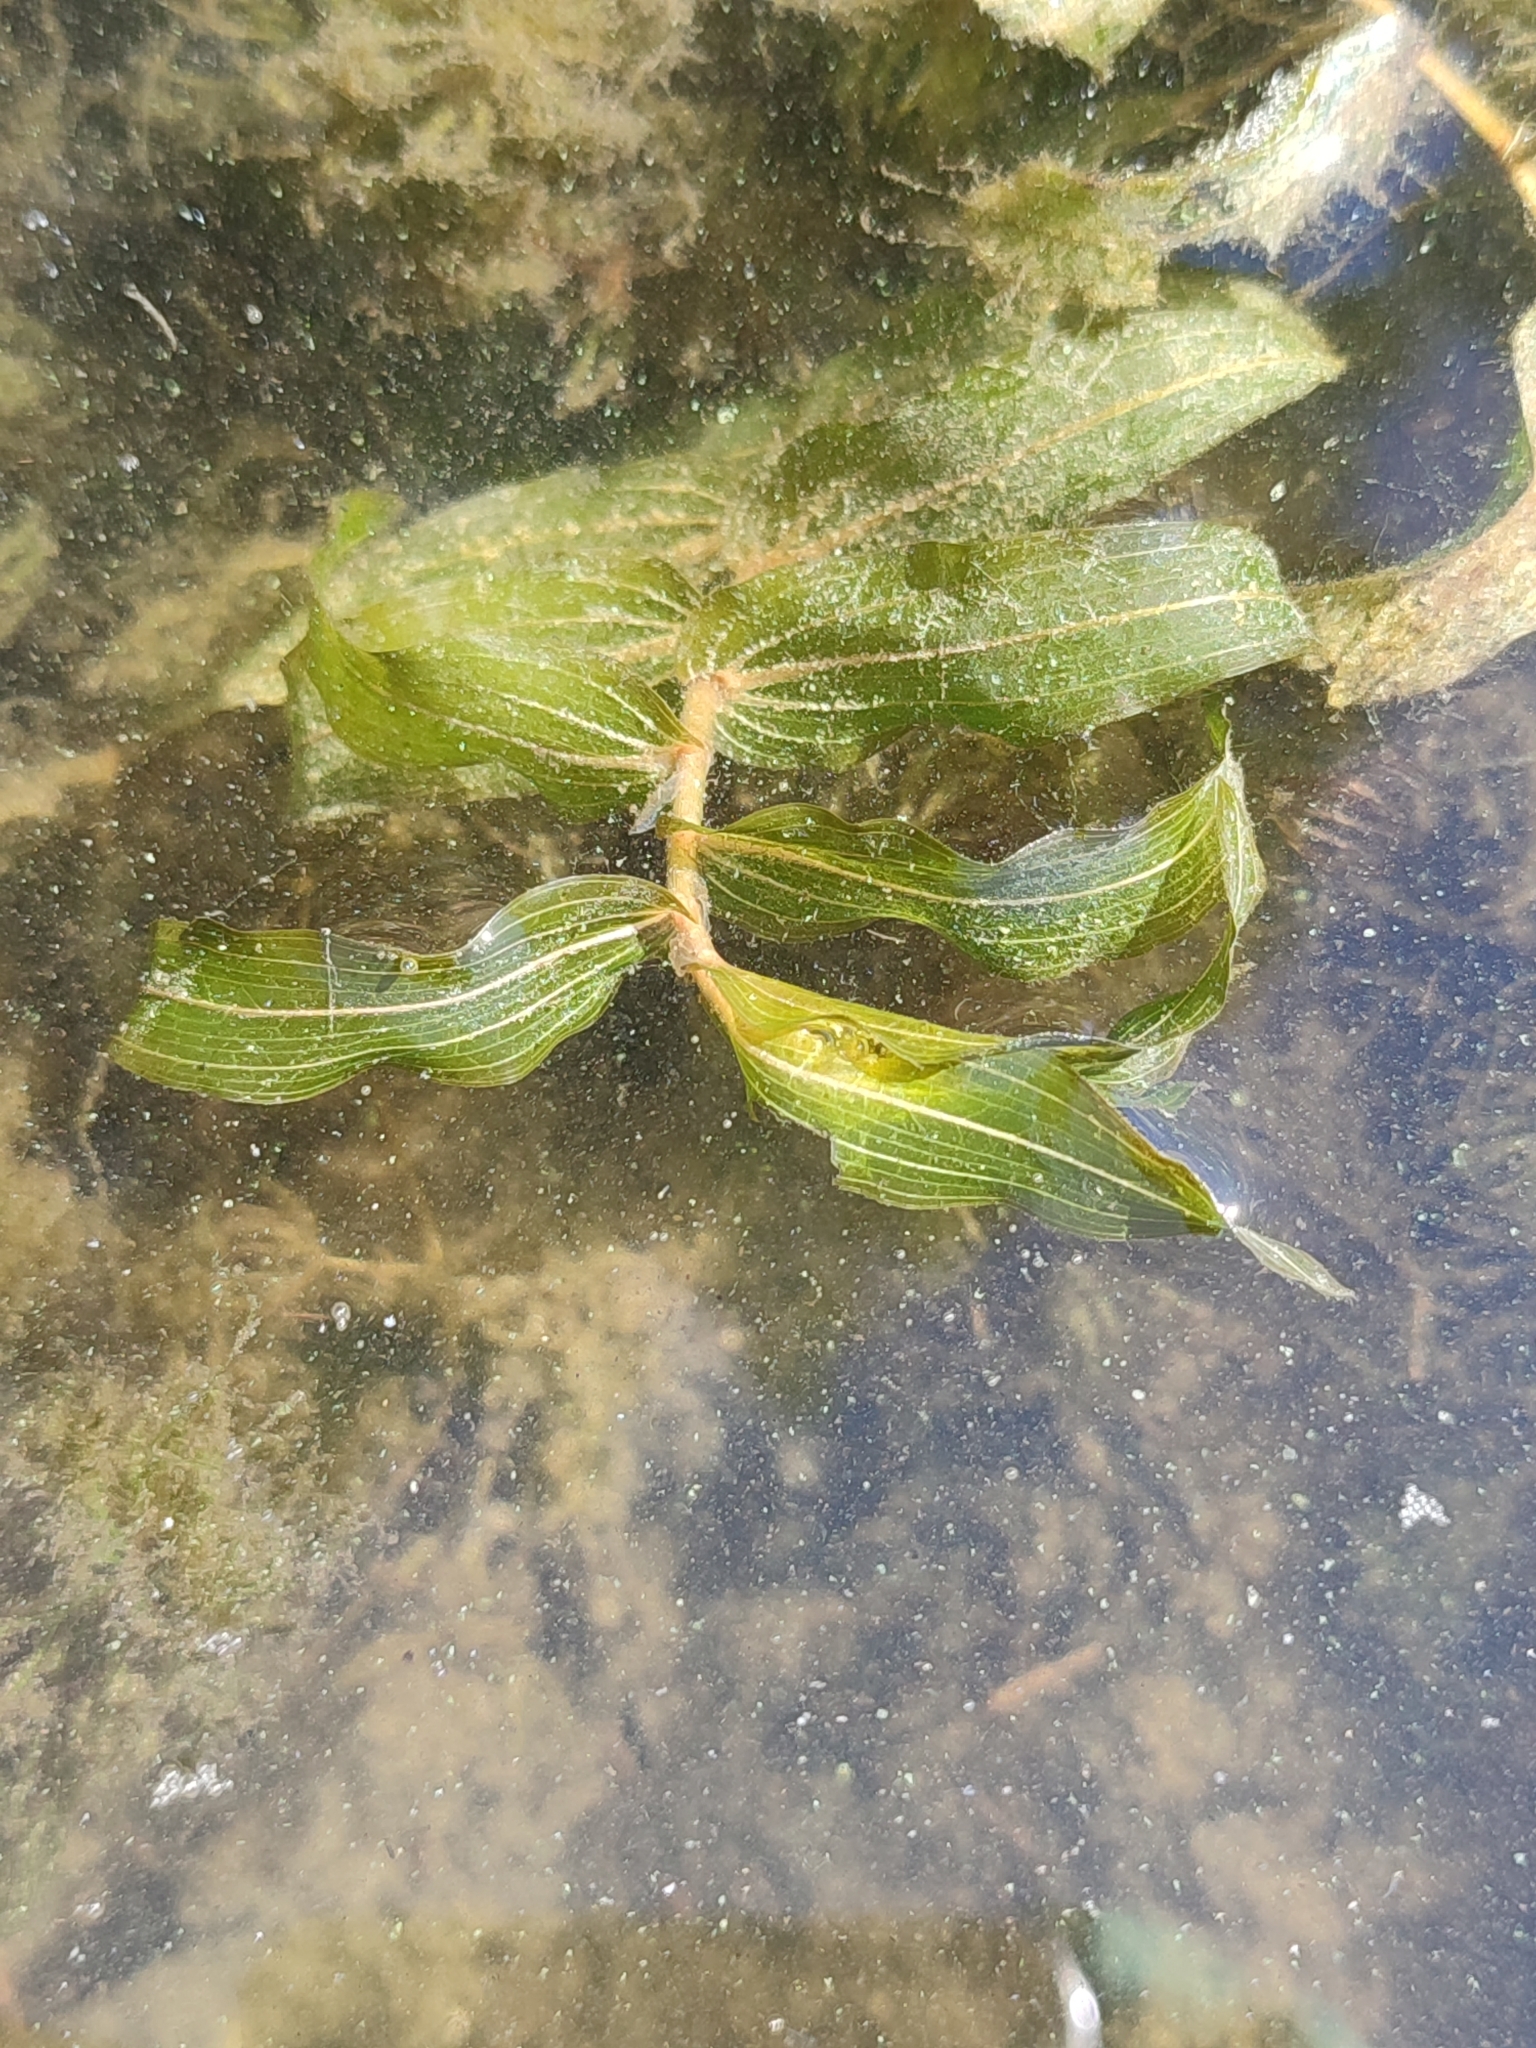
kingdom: Plantae
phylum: Tracheophyta
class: Liliopsida
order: Alismatales
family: Potamogetonaceae
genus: Potamogeton
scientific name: Potamogeton perfoliatus
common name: Perfoliate pondweed
